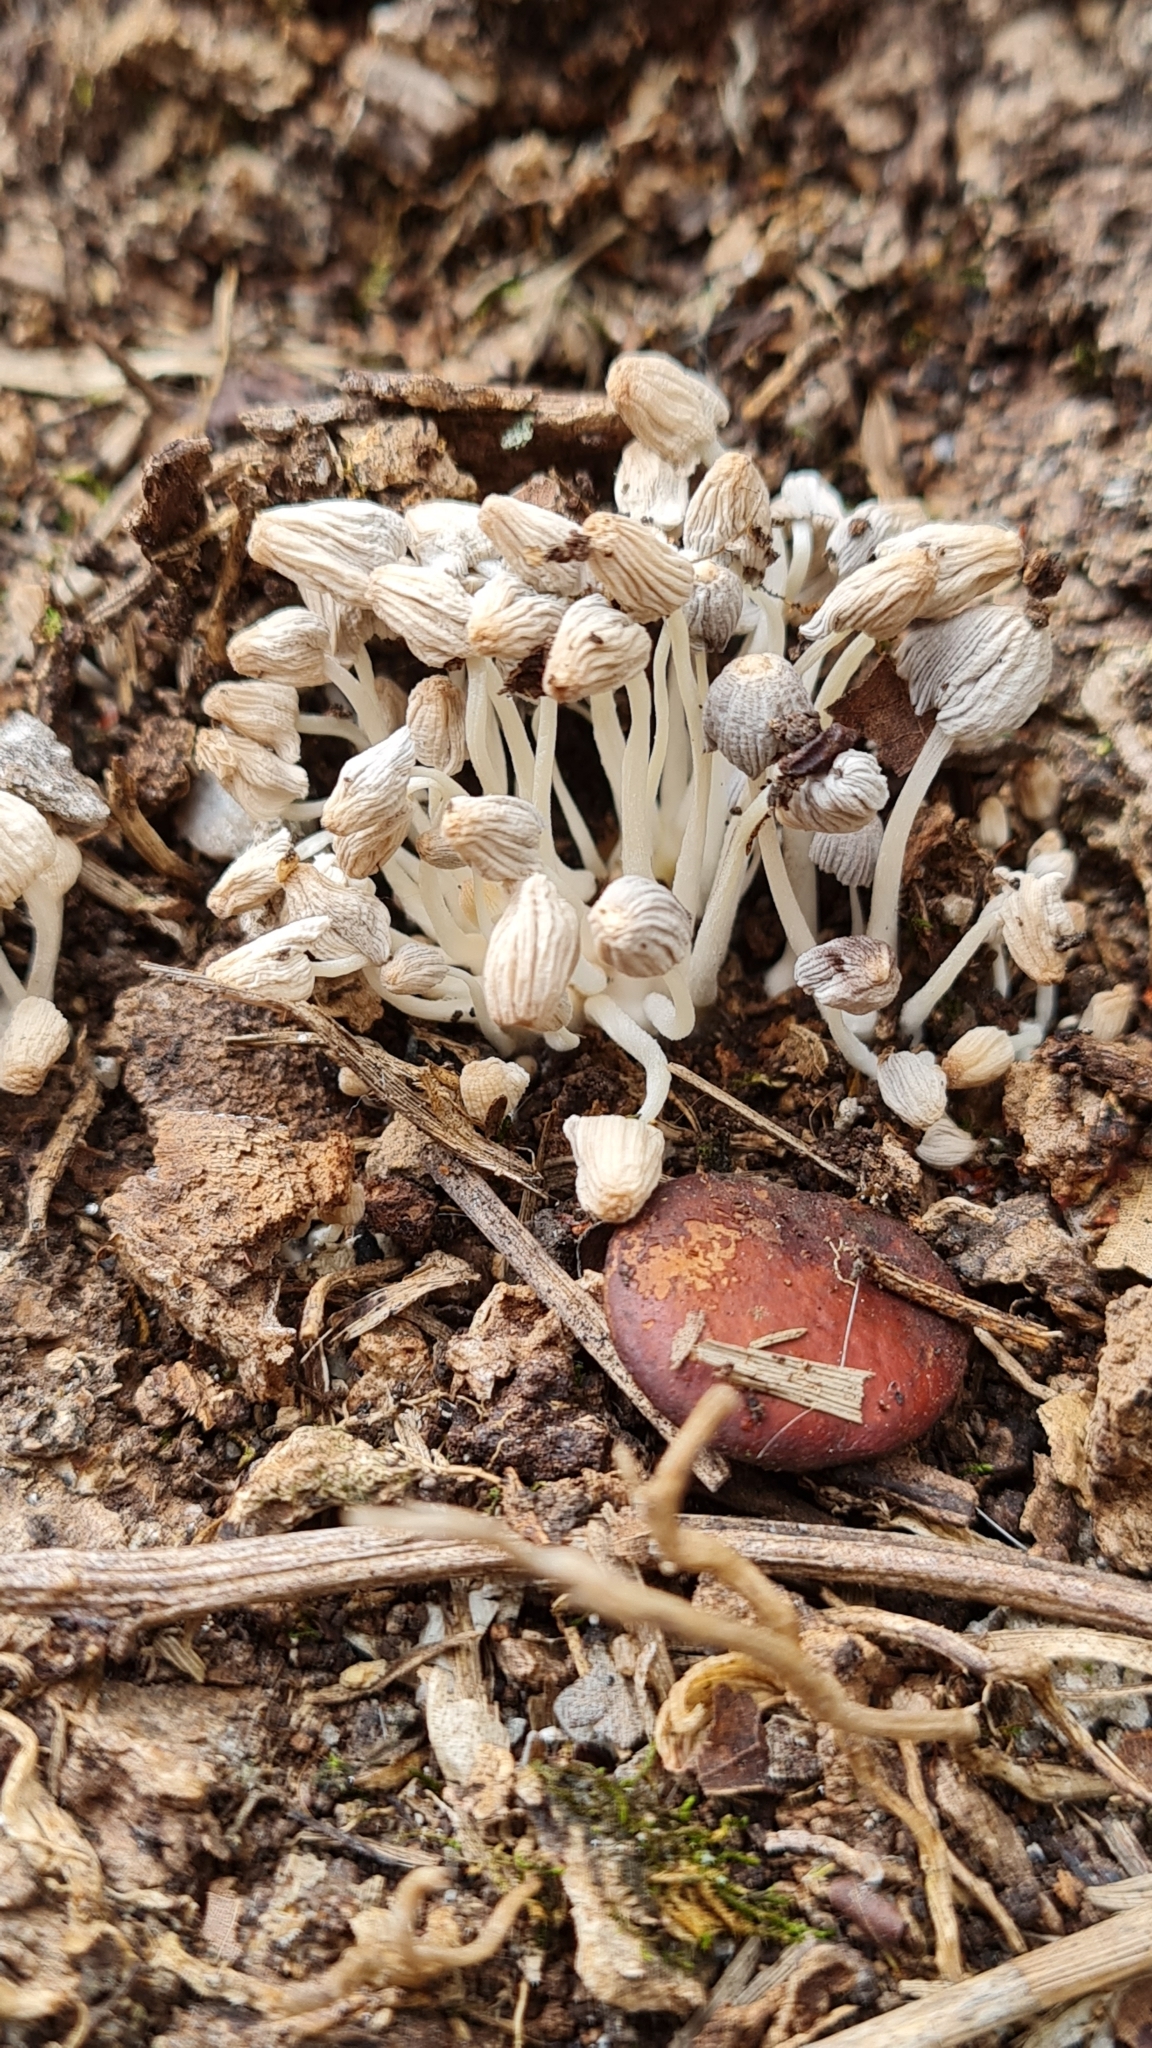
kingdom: Fungi
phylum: Basidiomycota
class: Agaricomycetes
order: Agaricales
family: Psathyrellaceae
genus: Coprinellus
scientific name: Coprinellus disseminatus
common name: Fairies' bonnets
